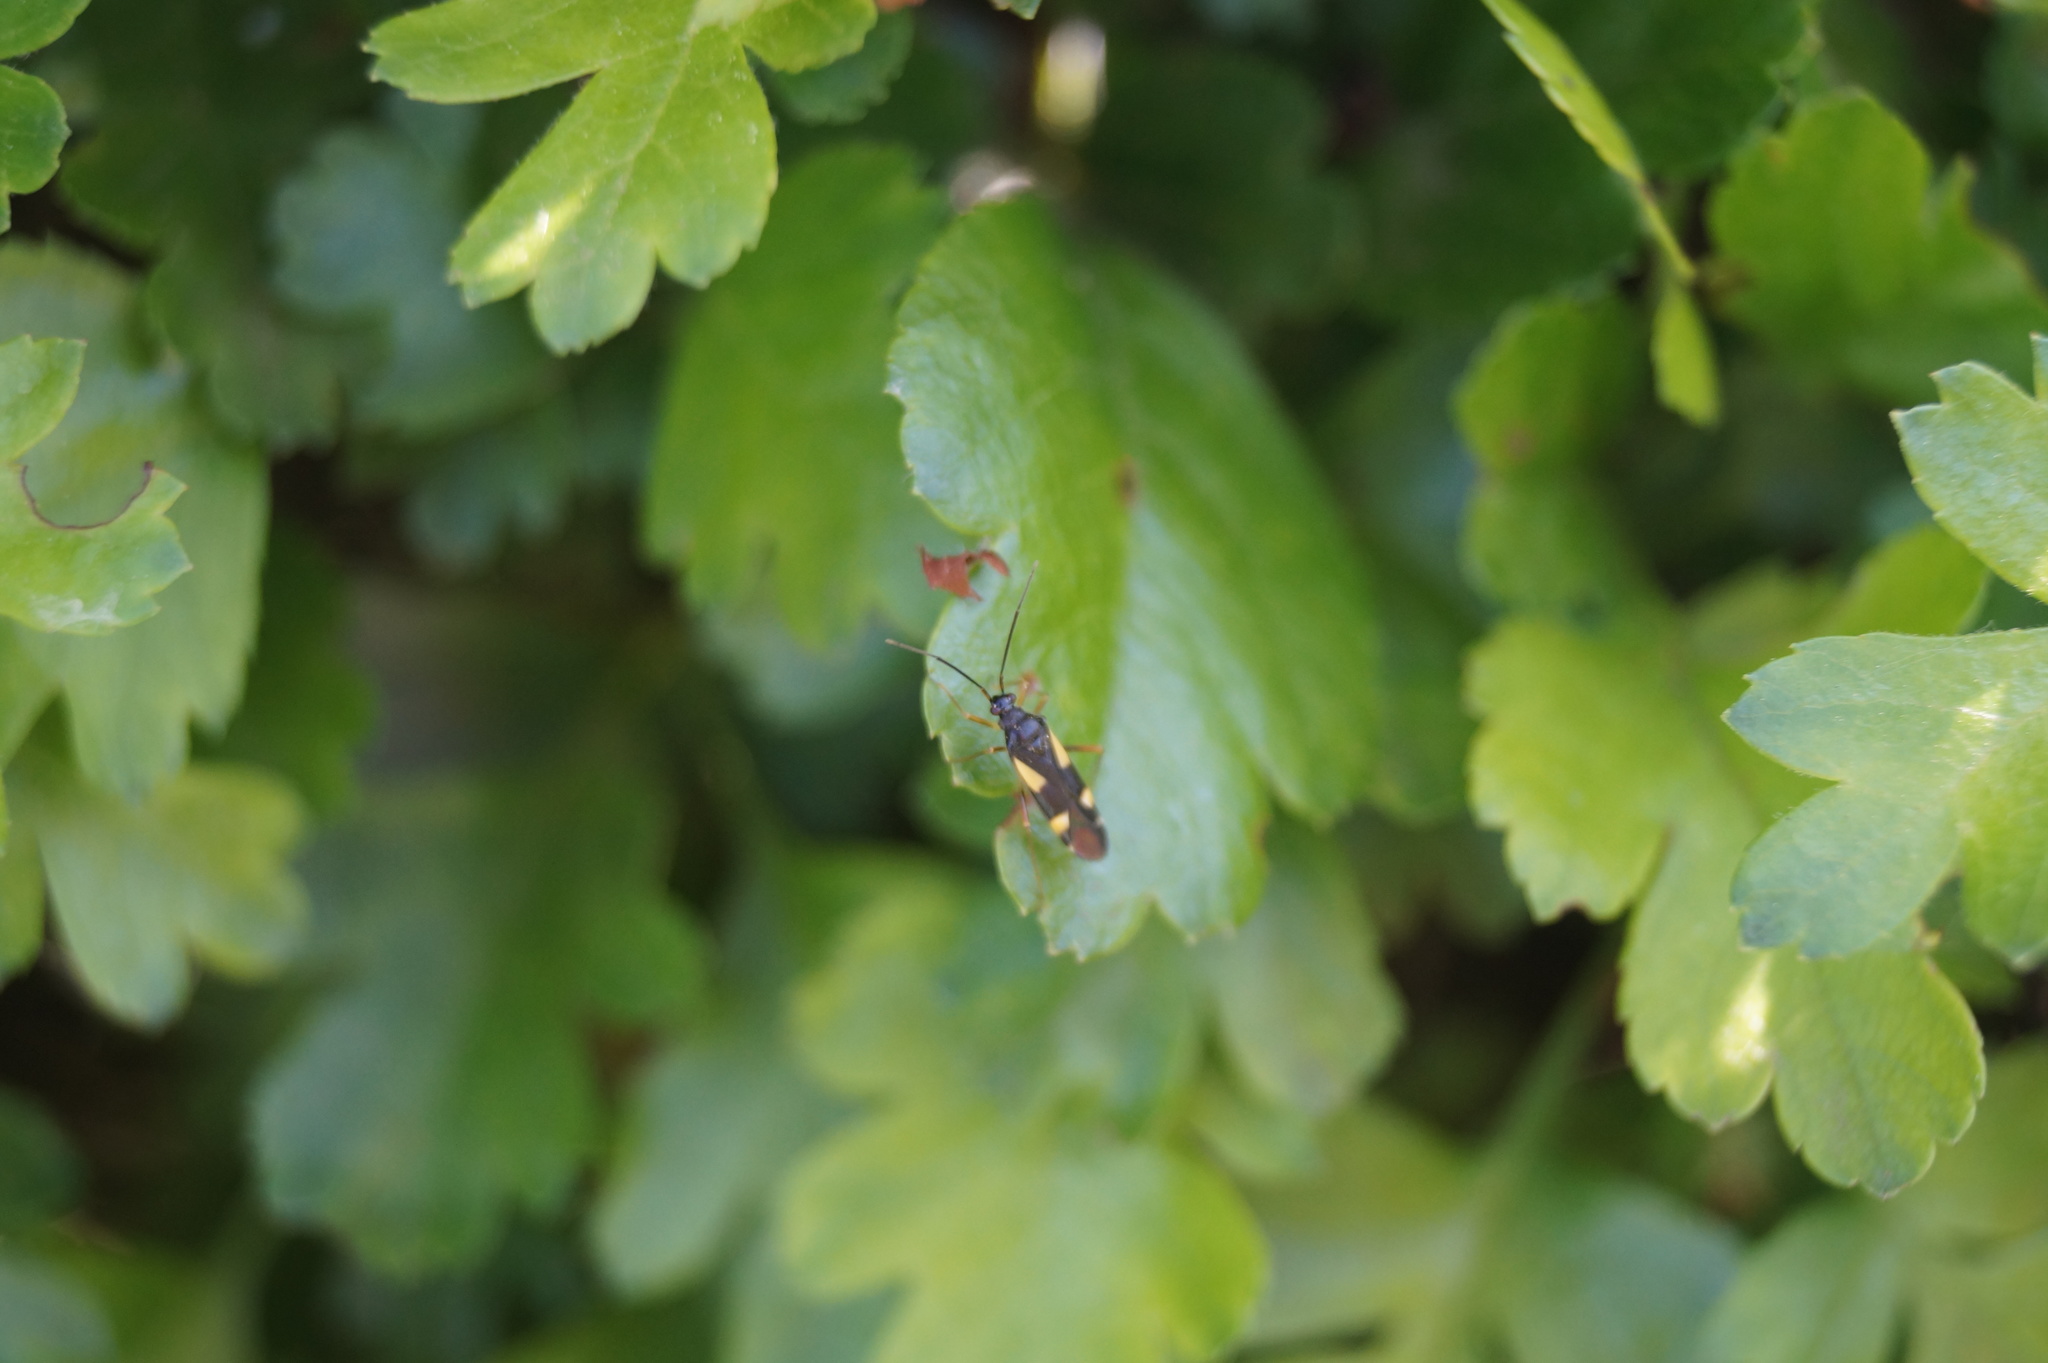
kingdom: Animalia
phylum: Arthropoda
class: Insecta
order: Hemiptera
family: Miridae
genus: Dryophilocoris
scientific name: Dryophilocoris flavoquadrimaculatus
